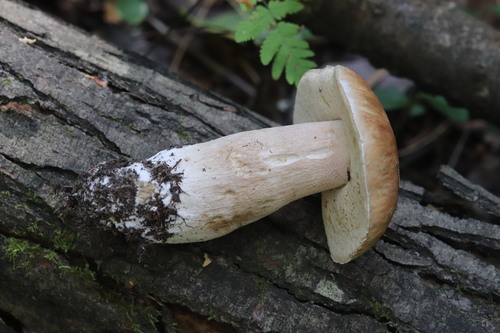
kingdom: Fungi
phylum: Basidiomycota
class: Agaricomycetes
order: Boletales
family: Boletaceae
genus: Boletus
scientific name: Boletus edulis
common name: Cep
